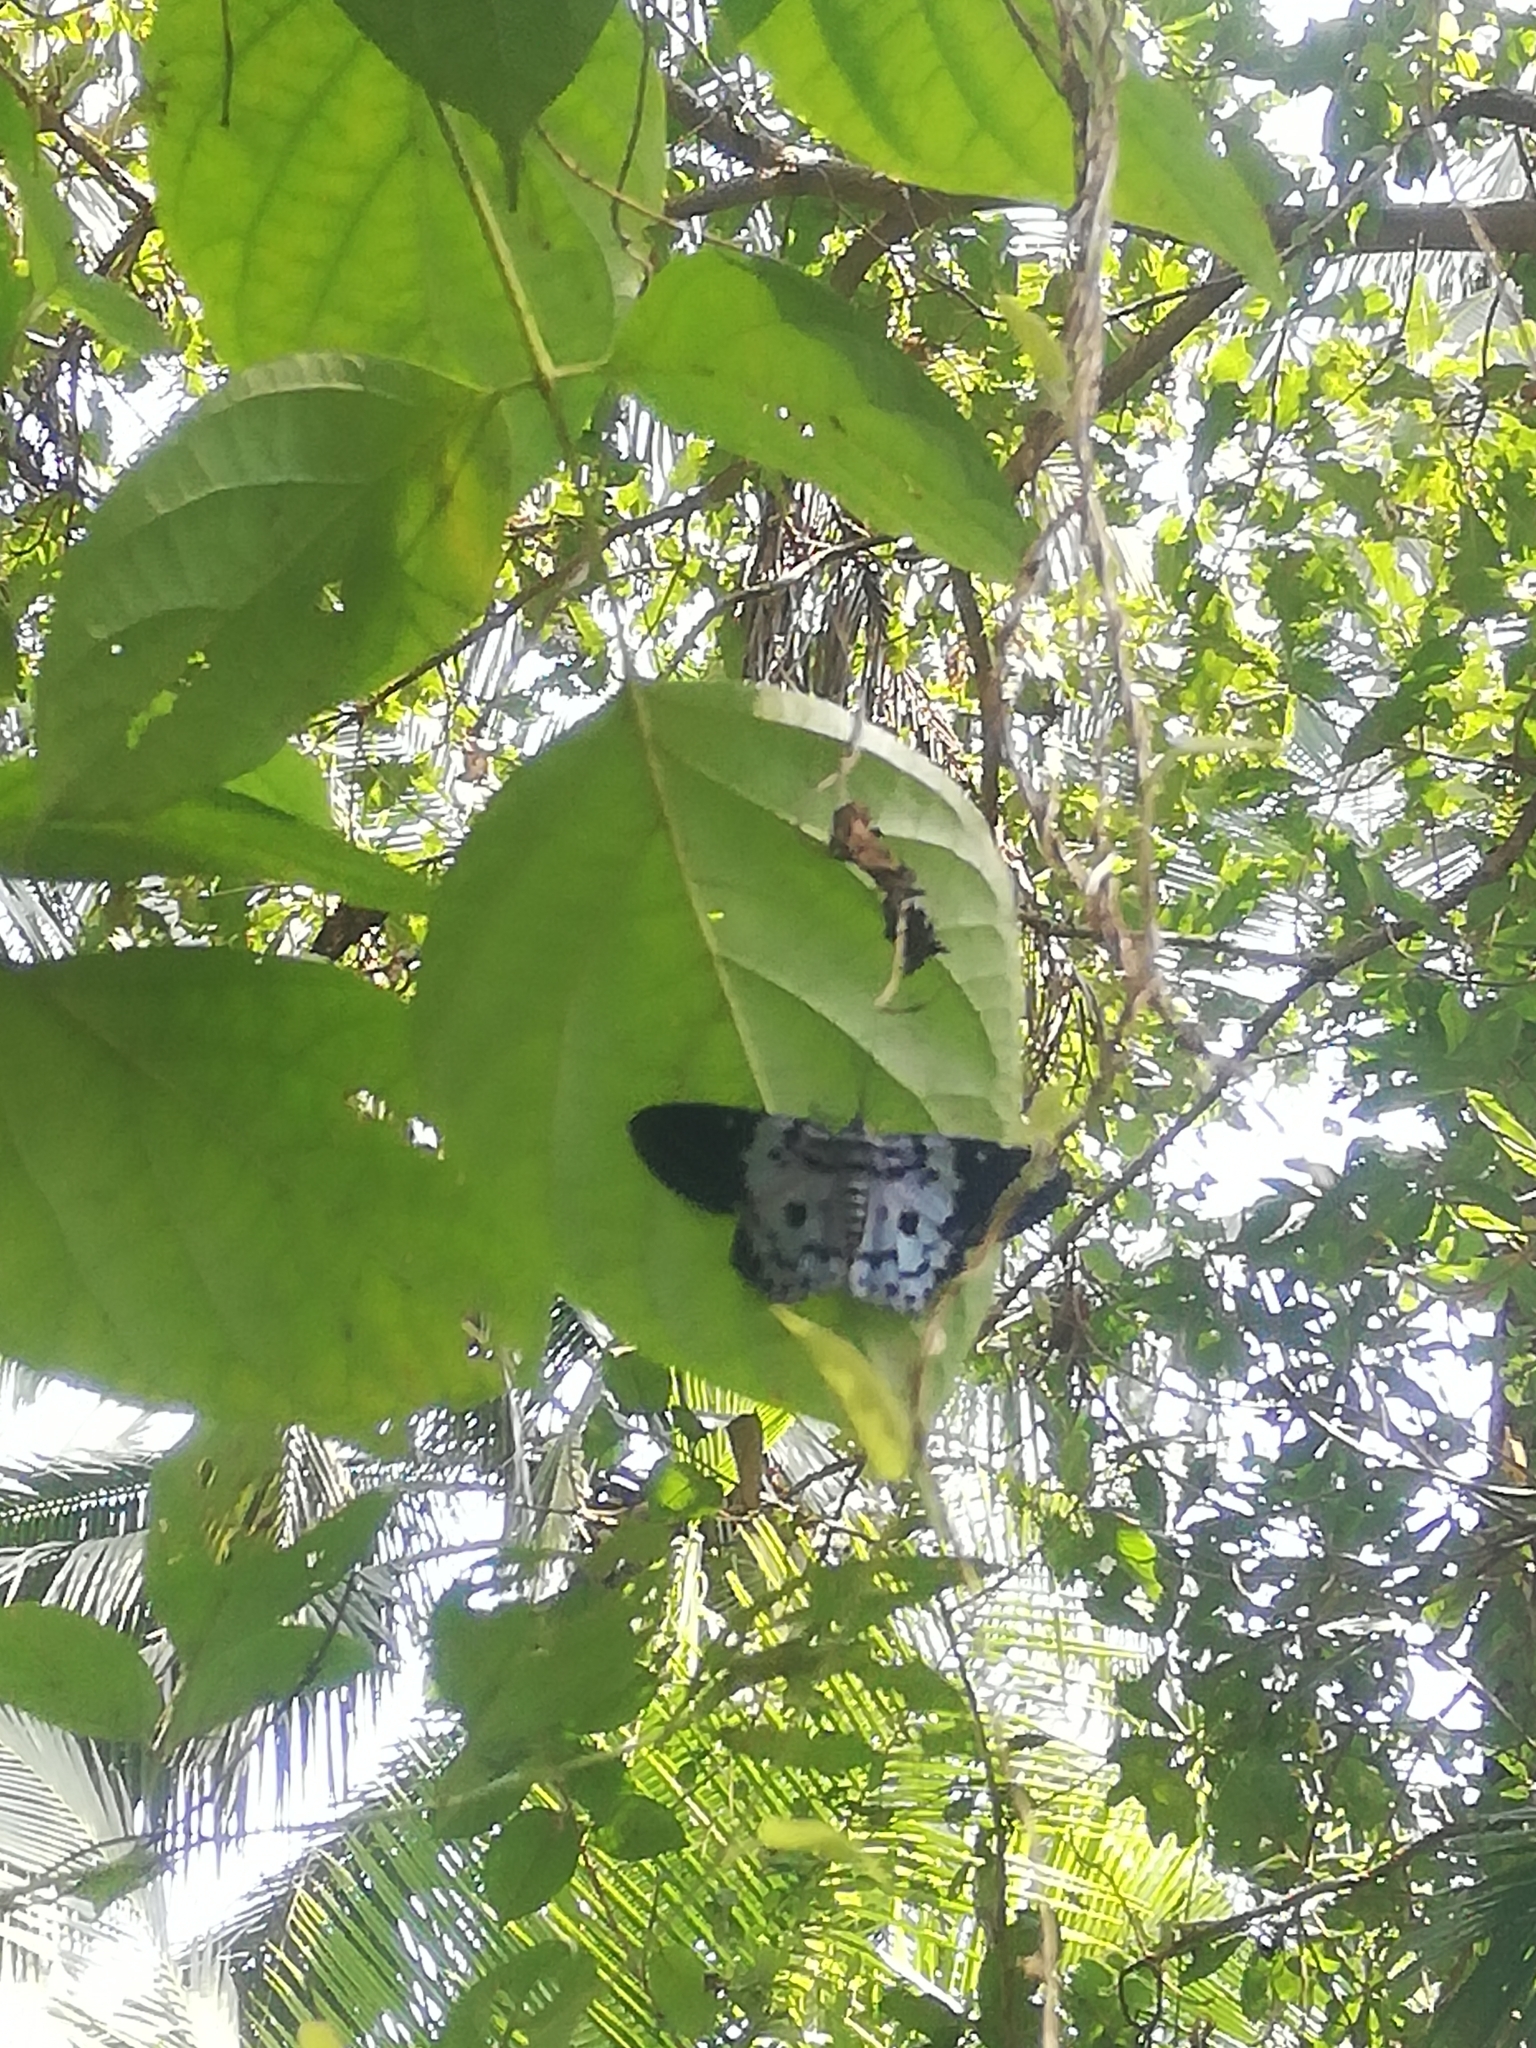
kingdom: Animalia
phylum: Arthropoda
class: Insecta
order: Lepidoptera
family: Geometridae
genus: Dysphania
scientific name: Dysphania percota
